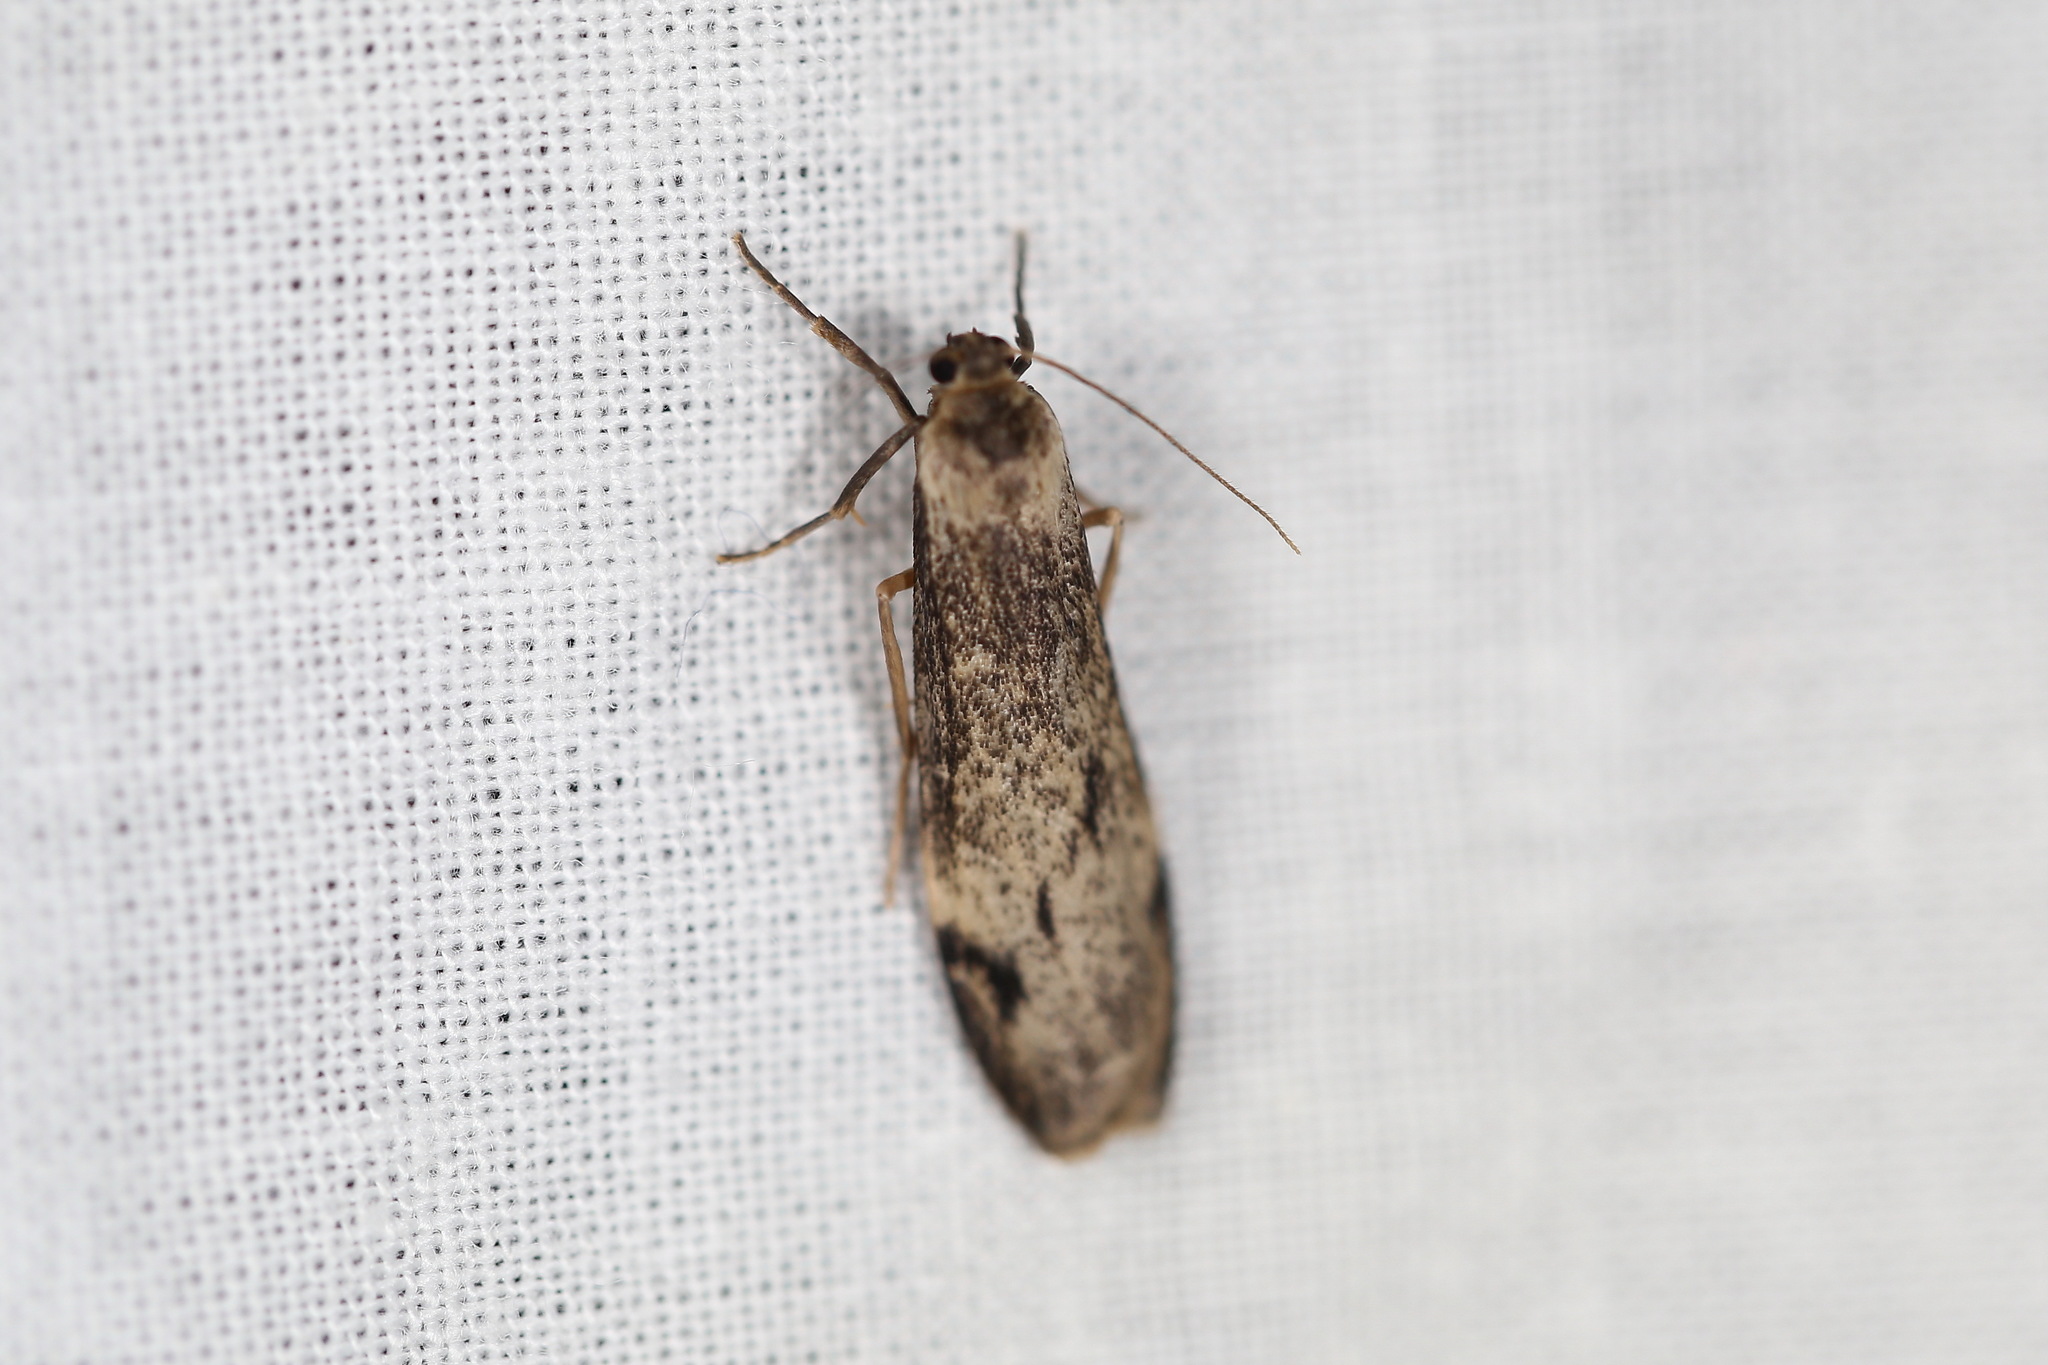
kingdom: Animalia
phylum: Arthropoda
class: Insecta
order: Lepidoptera
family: Erebidae
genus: Graphosia
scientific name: Graphosia stenopepla
